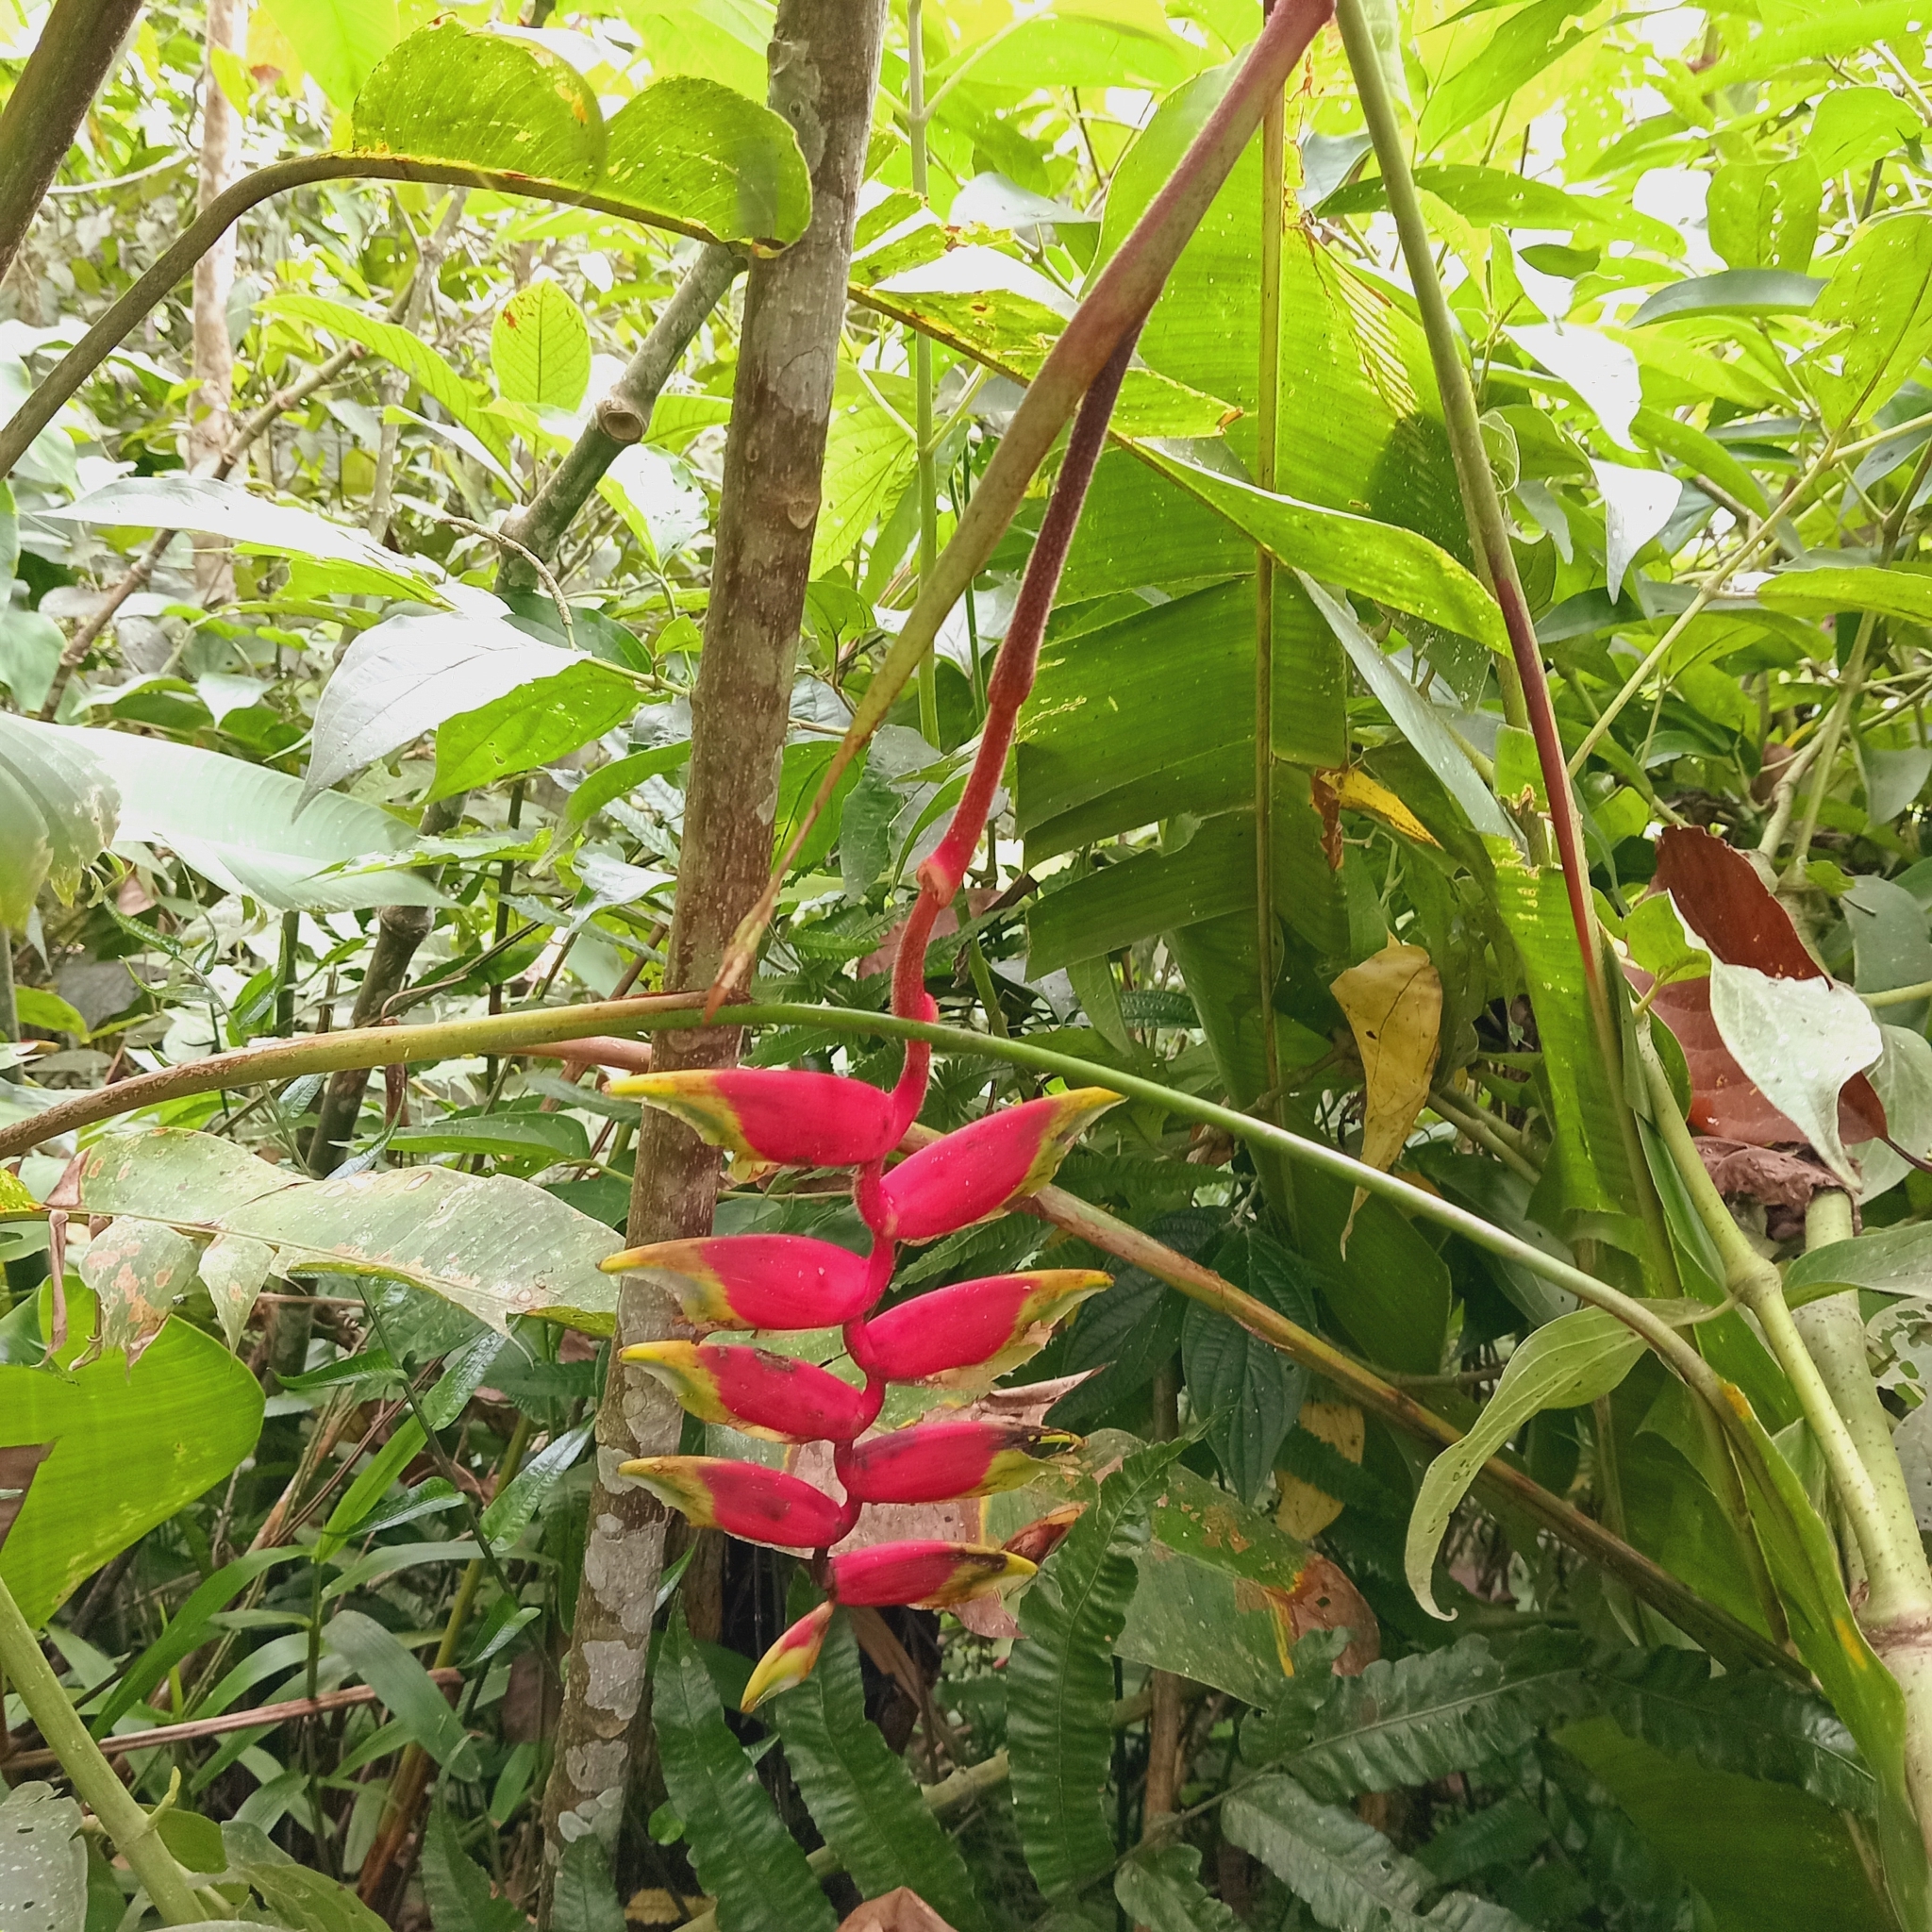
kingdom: Plantae
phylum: Tracheophyta
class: Liliopsida
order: Zingiberales
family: Heliconiaceae
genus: Heliconia
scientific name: Heliconia rostrata
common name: False bird of paradise
